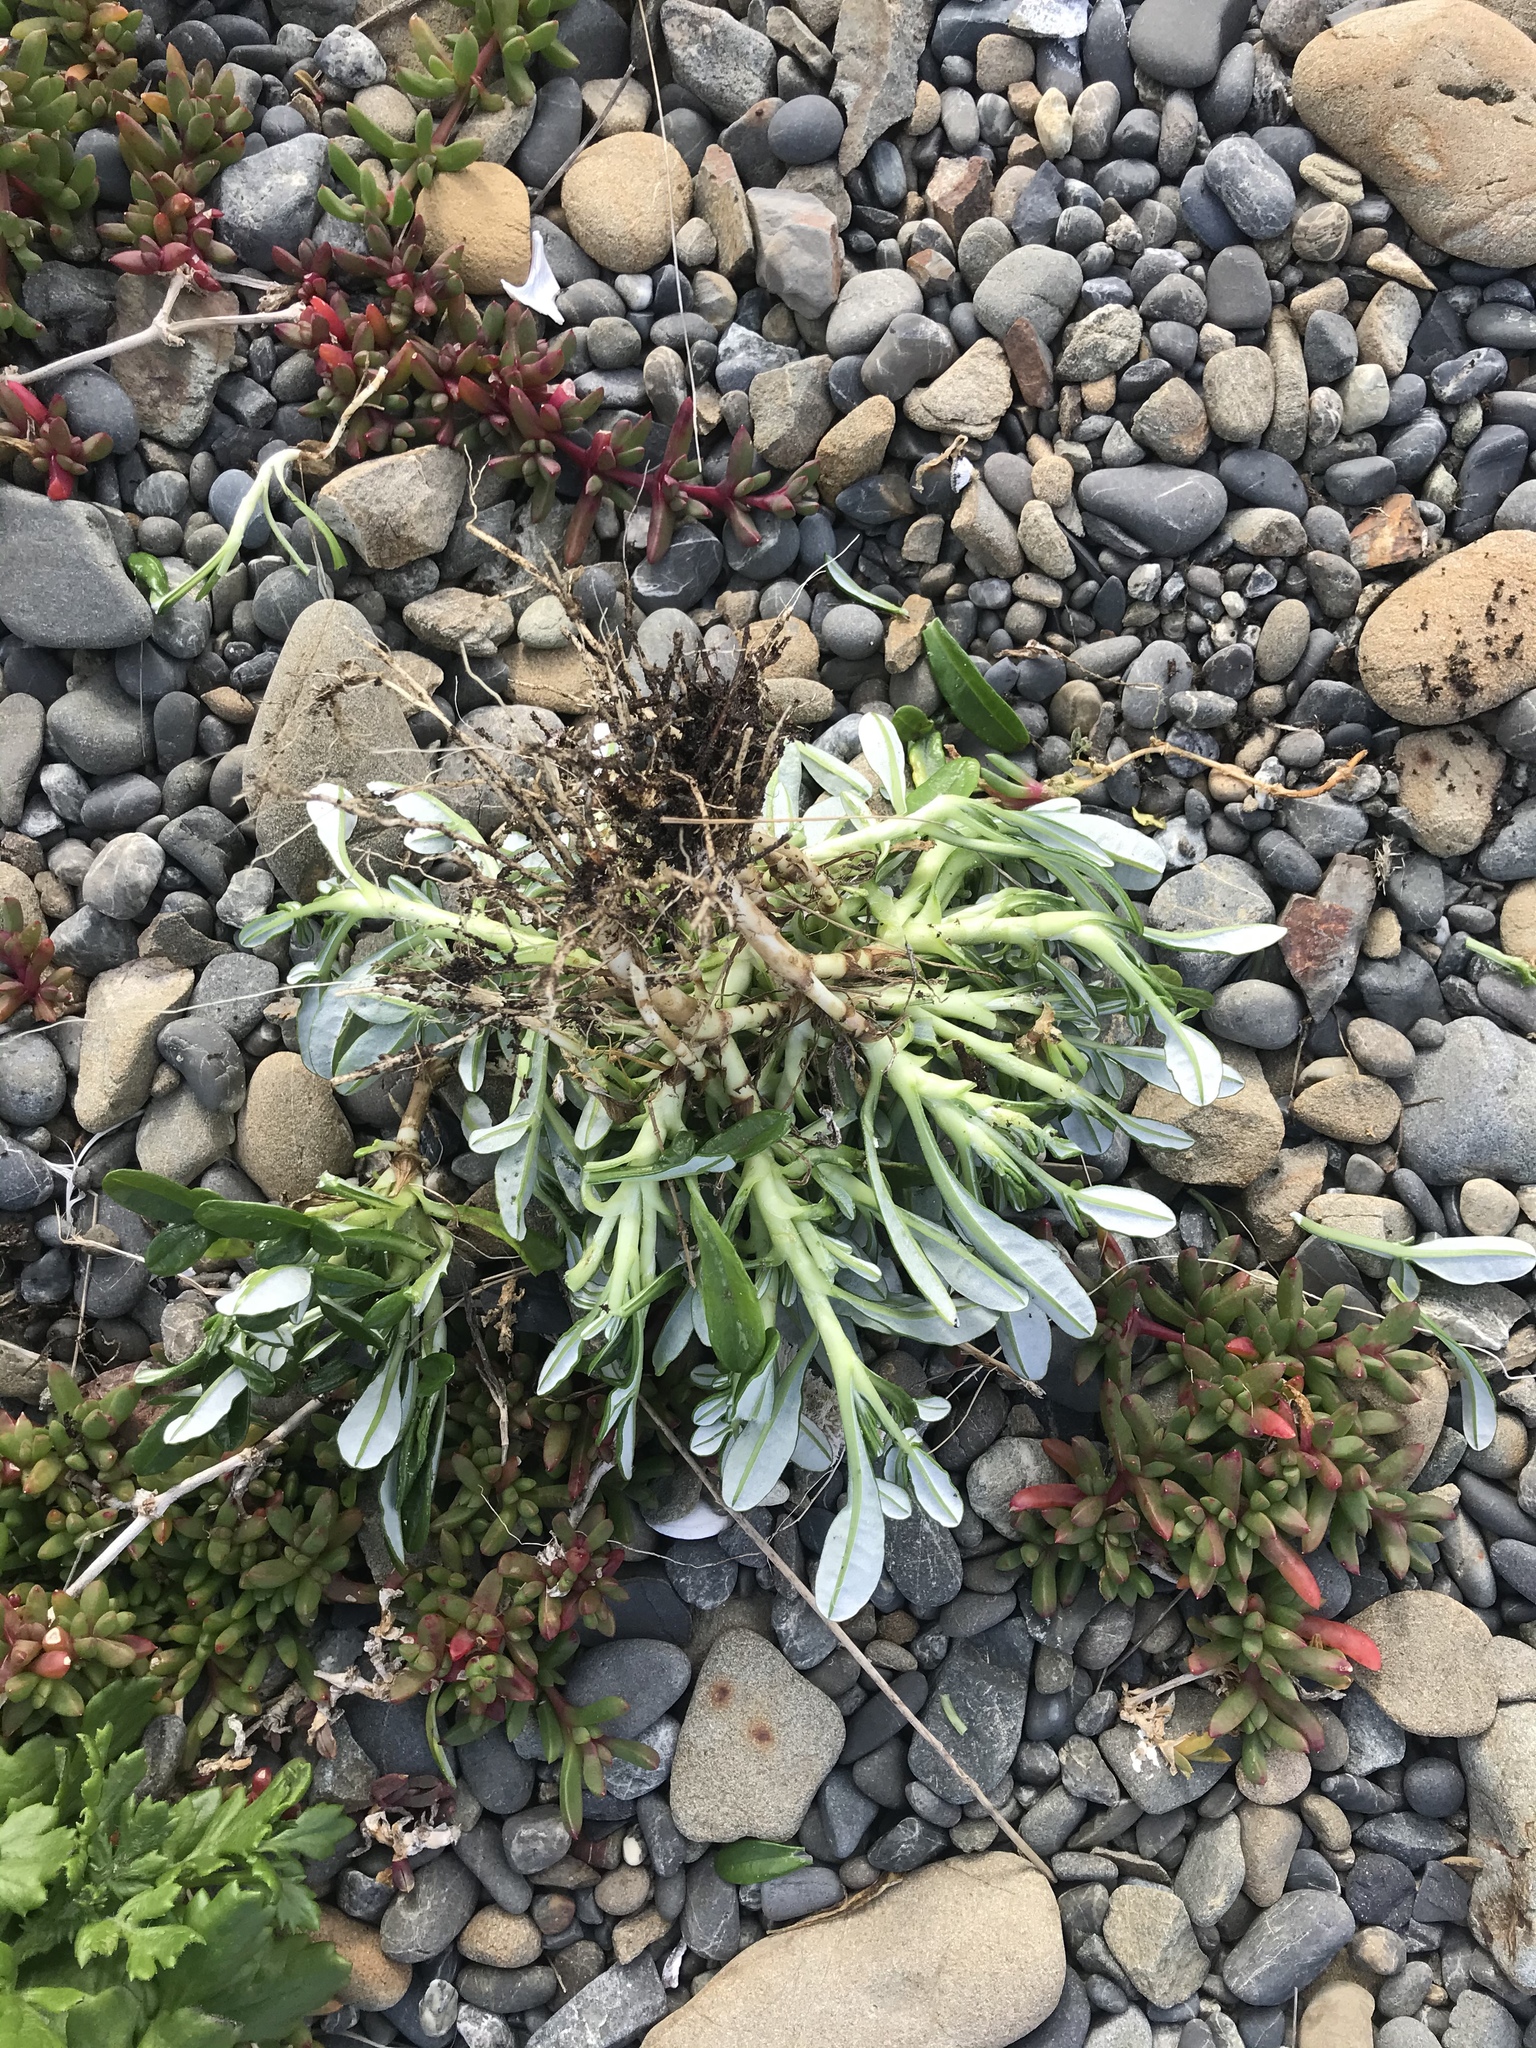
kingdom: Plantae
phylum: Tracheophyta
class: Magnoliopsida
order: Asterales
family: Asteraceae
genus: Gazania
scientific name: Gazania rigens
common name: Treasureflower
